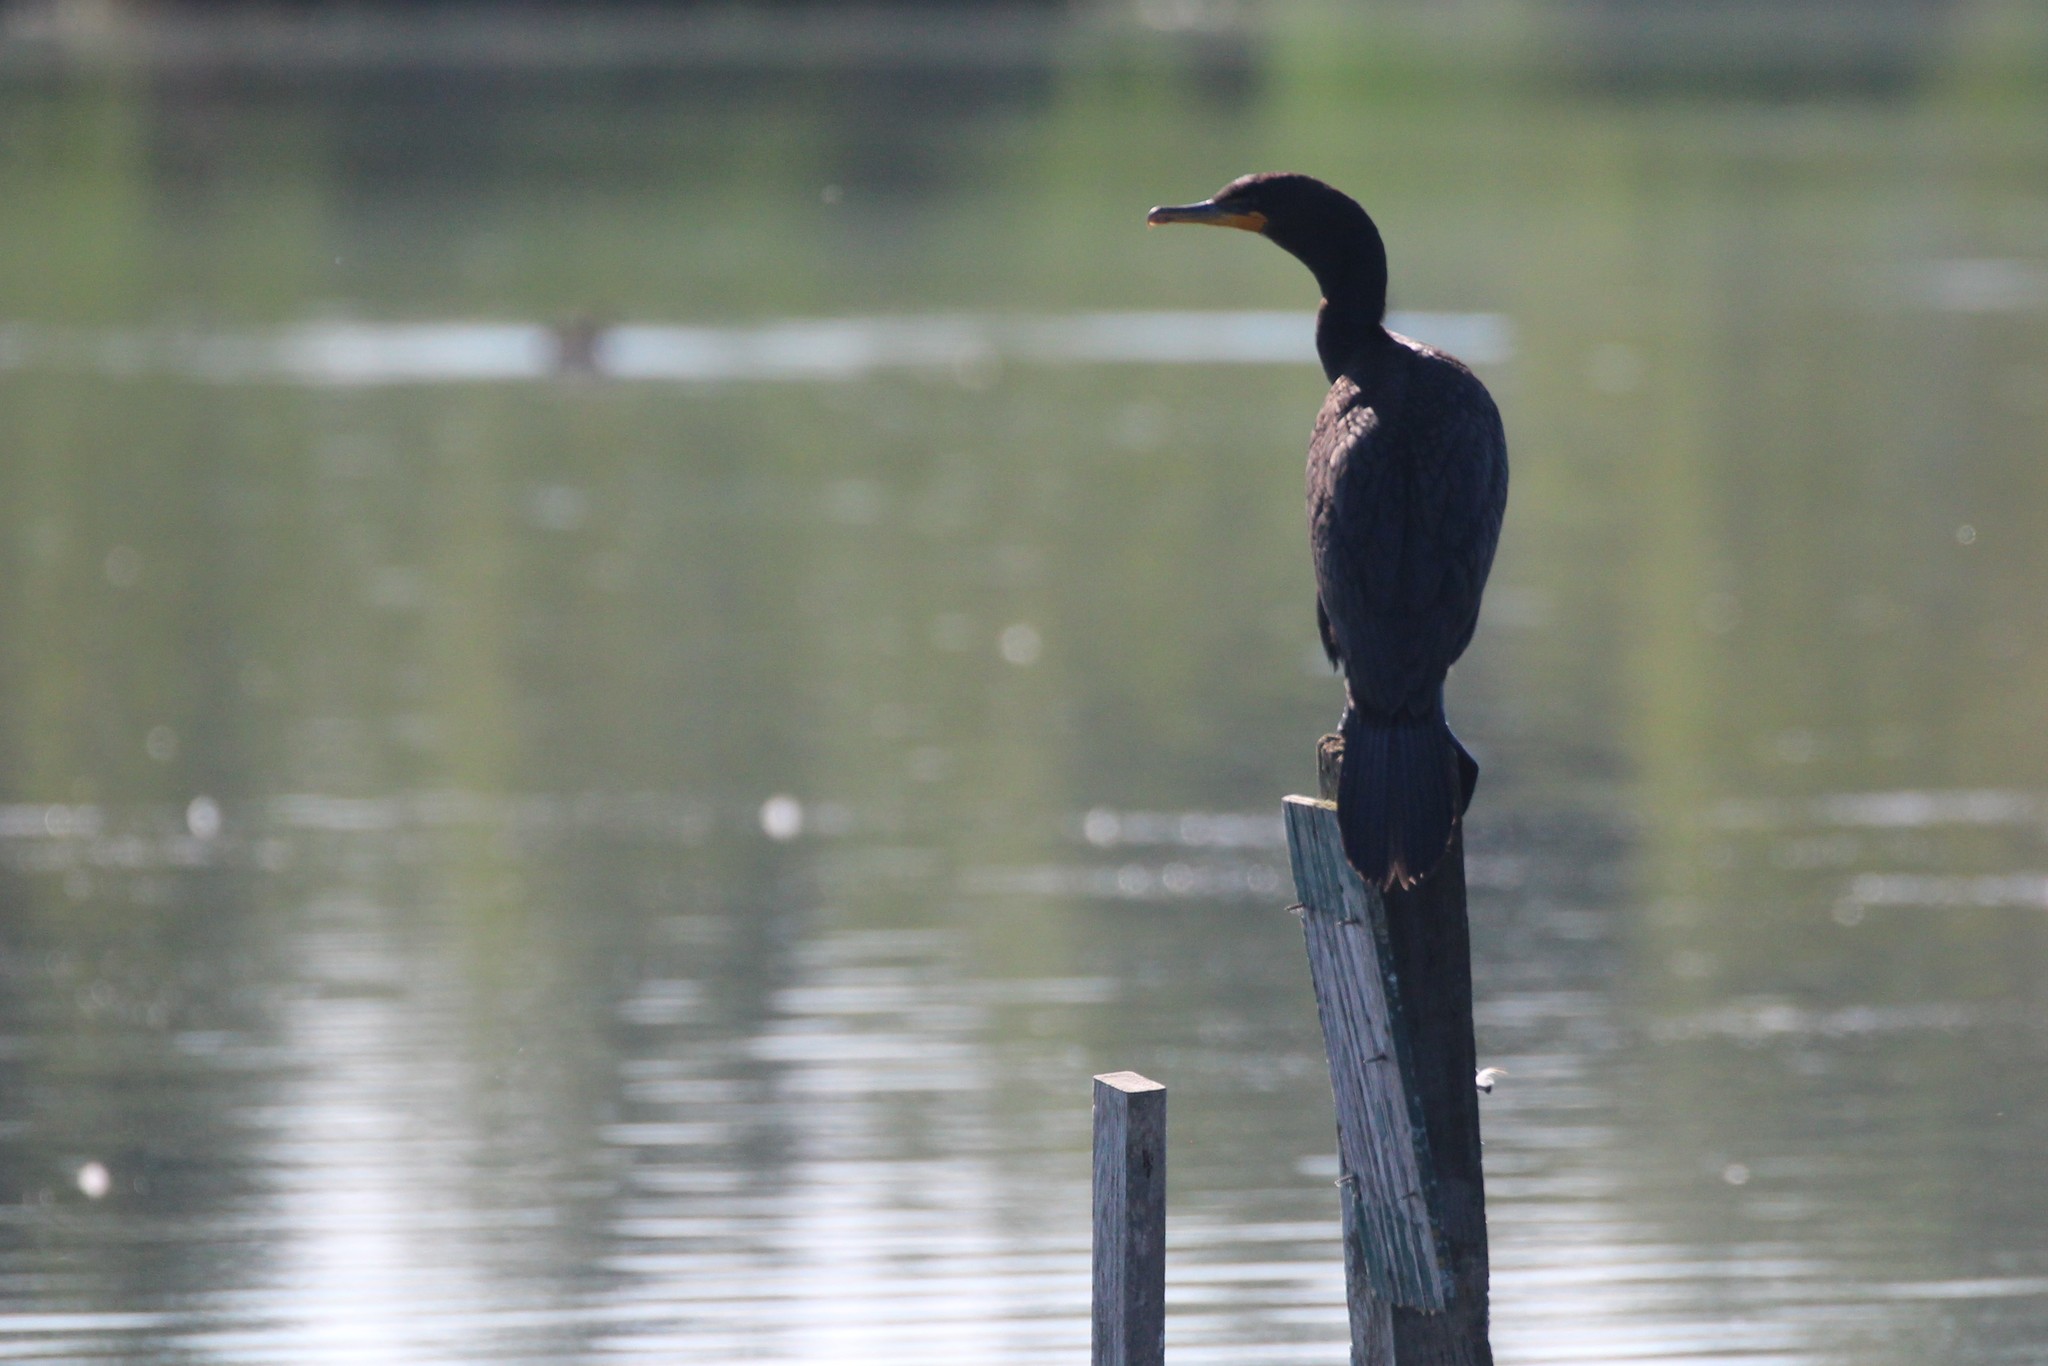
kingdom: Animalia
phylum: Chordata
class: Aves
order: Suliformes
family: Phalacrocoracidae
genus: Phalacrocorax
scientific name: Phalacrocorax auritus
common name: Double-crested cormorant
